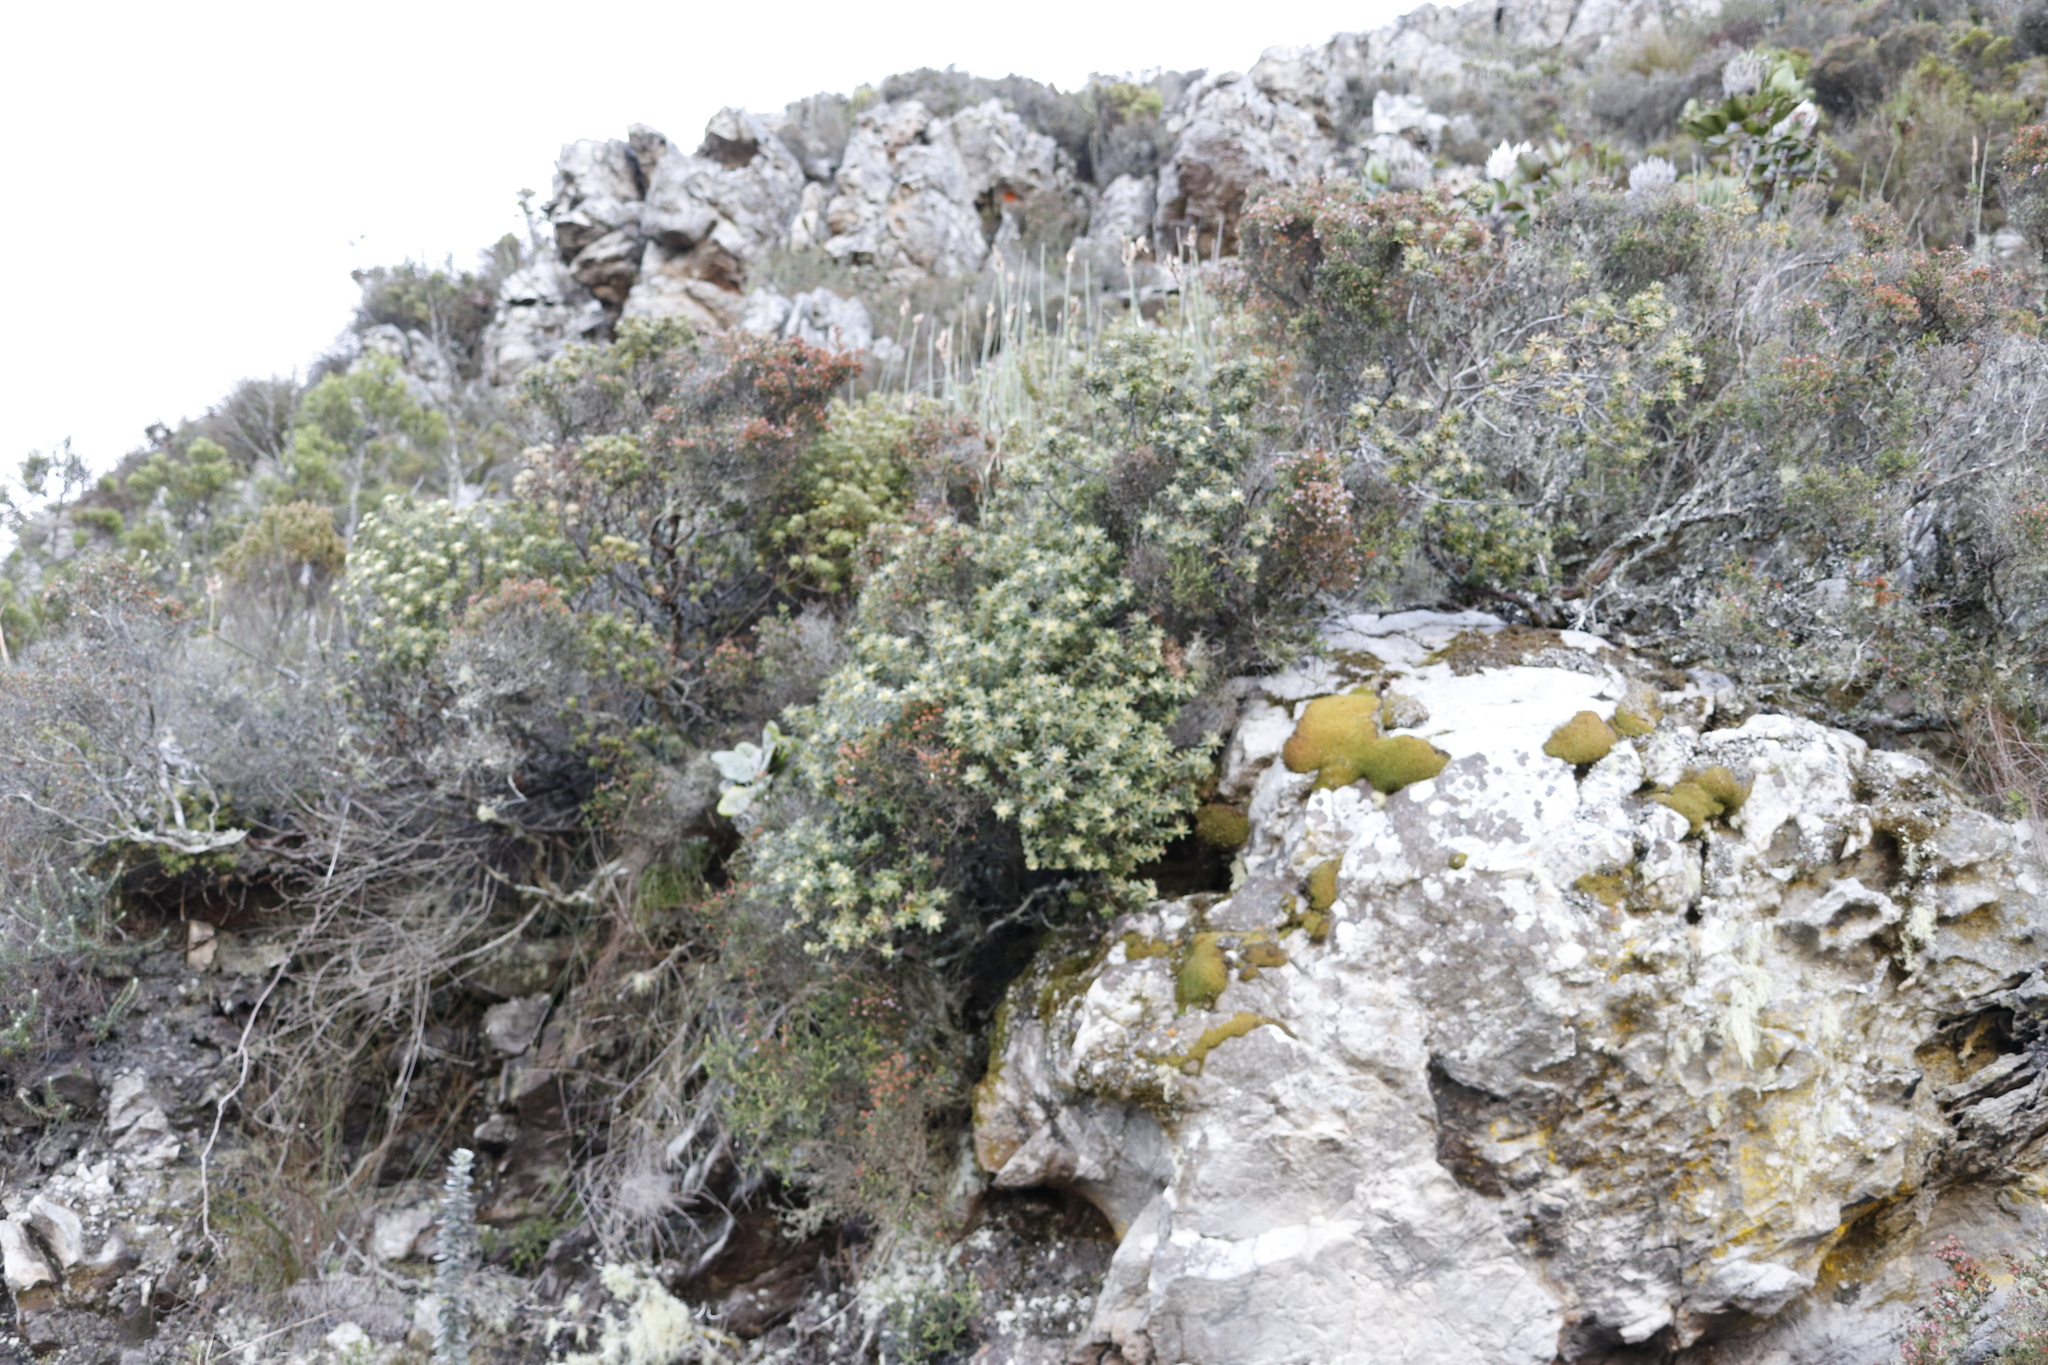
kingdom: Plantae
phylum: Tracheophyta
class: Magnoliopsida
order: Rosales
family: Rhamnaceae
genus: Phylica
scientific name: Phylica dioica
